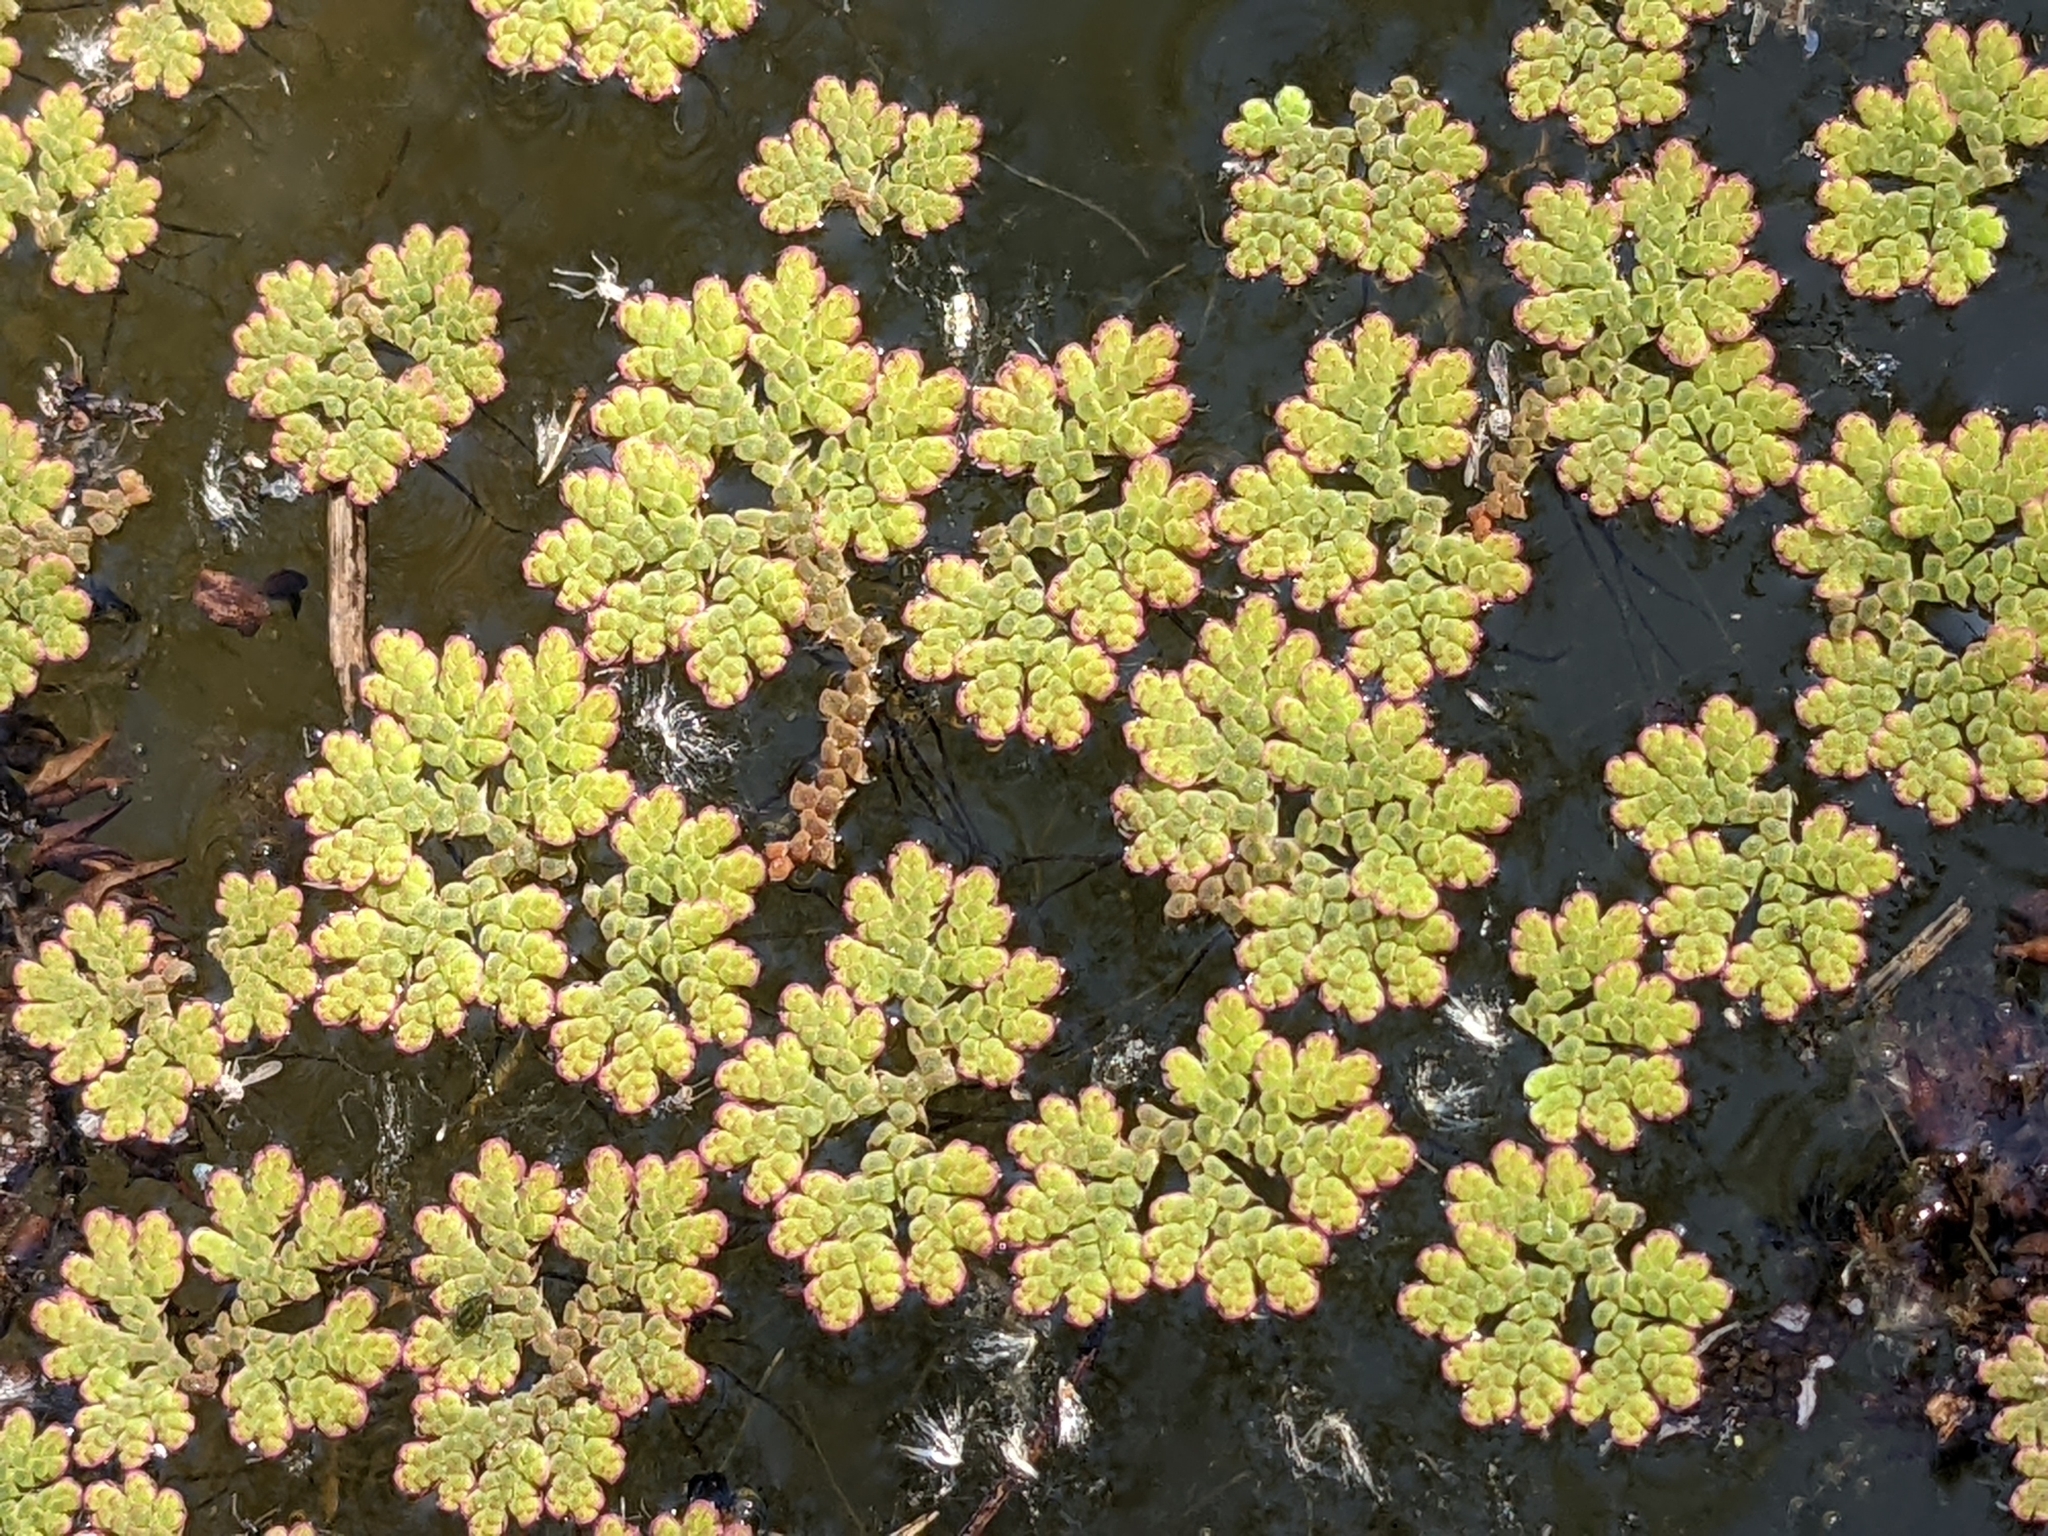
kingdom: Plantae
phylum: Tracheophyta
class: Polypodiopsida
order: Salviniales
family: Salviniaceae
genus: Azolla
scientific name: Azolla filiculoides
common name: Water fern
